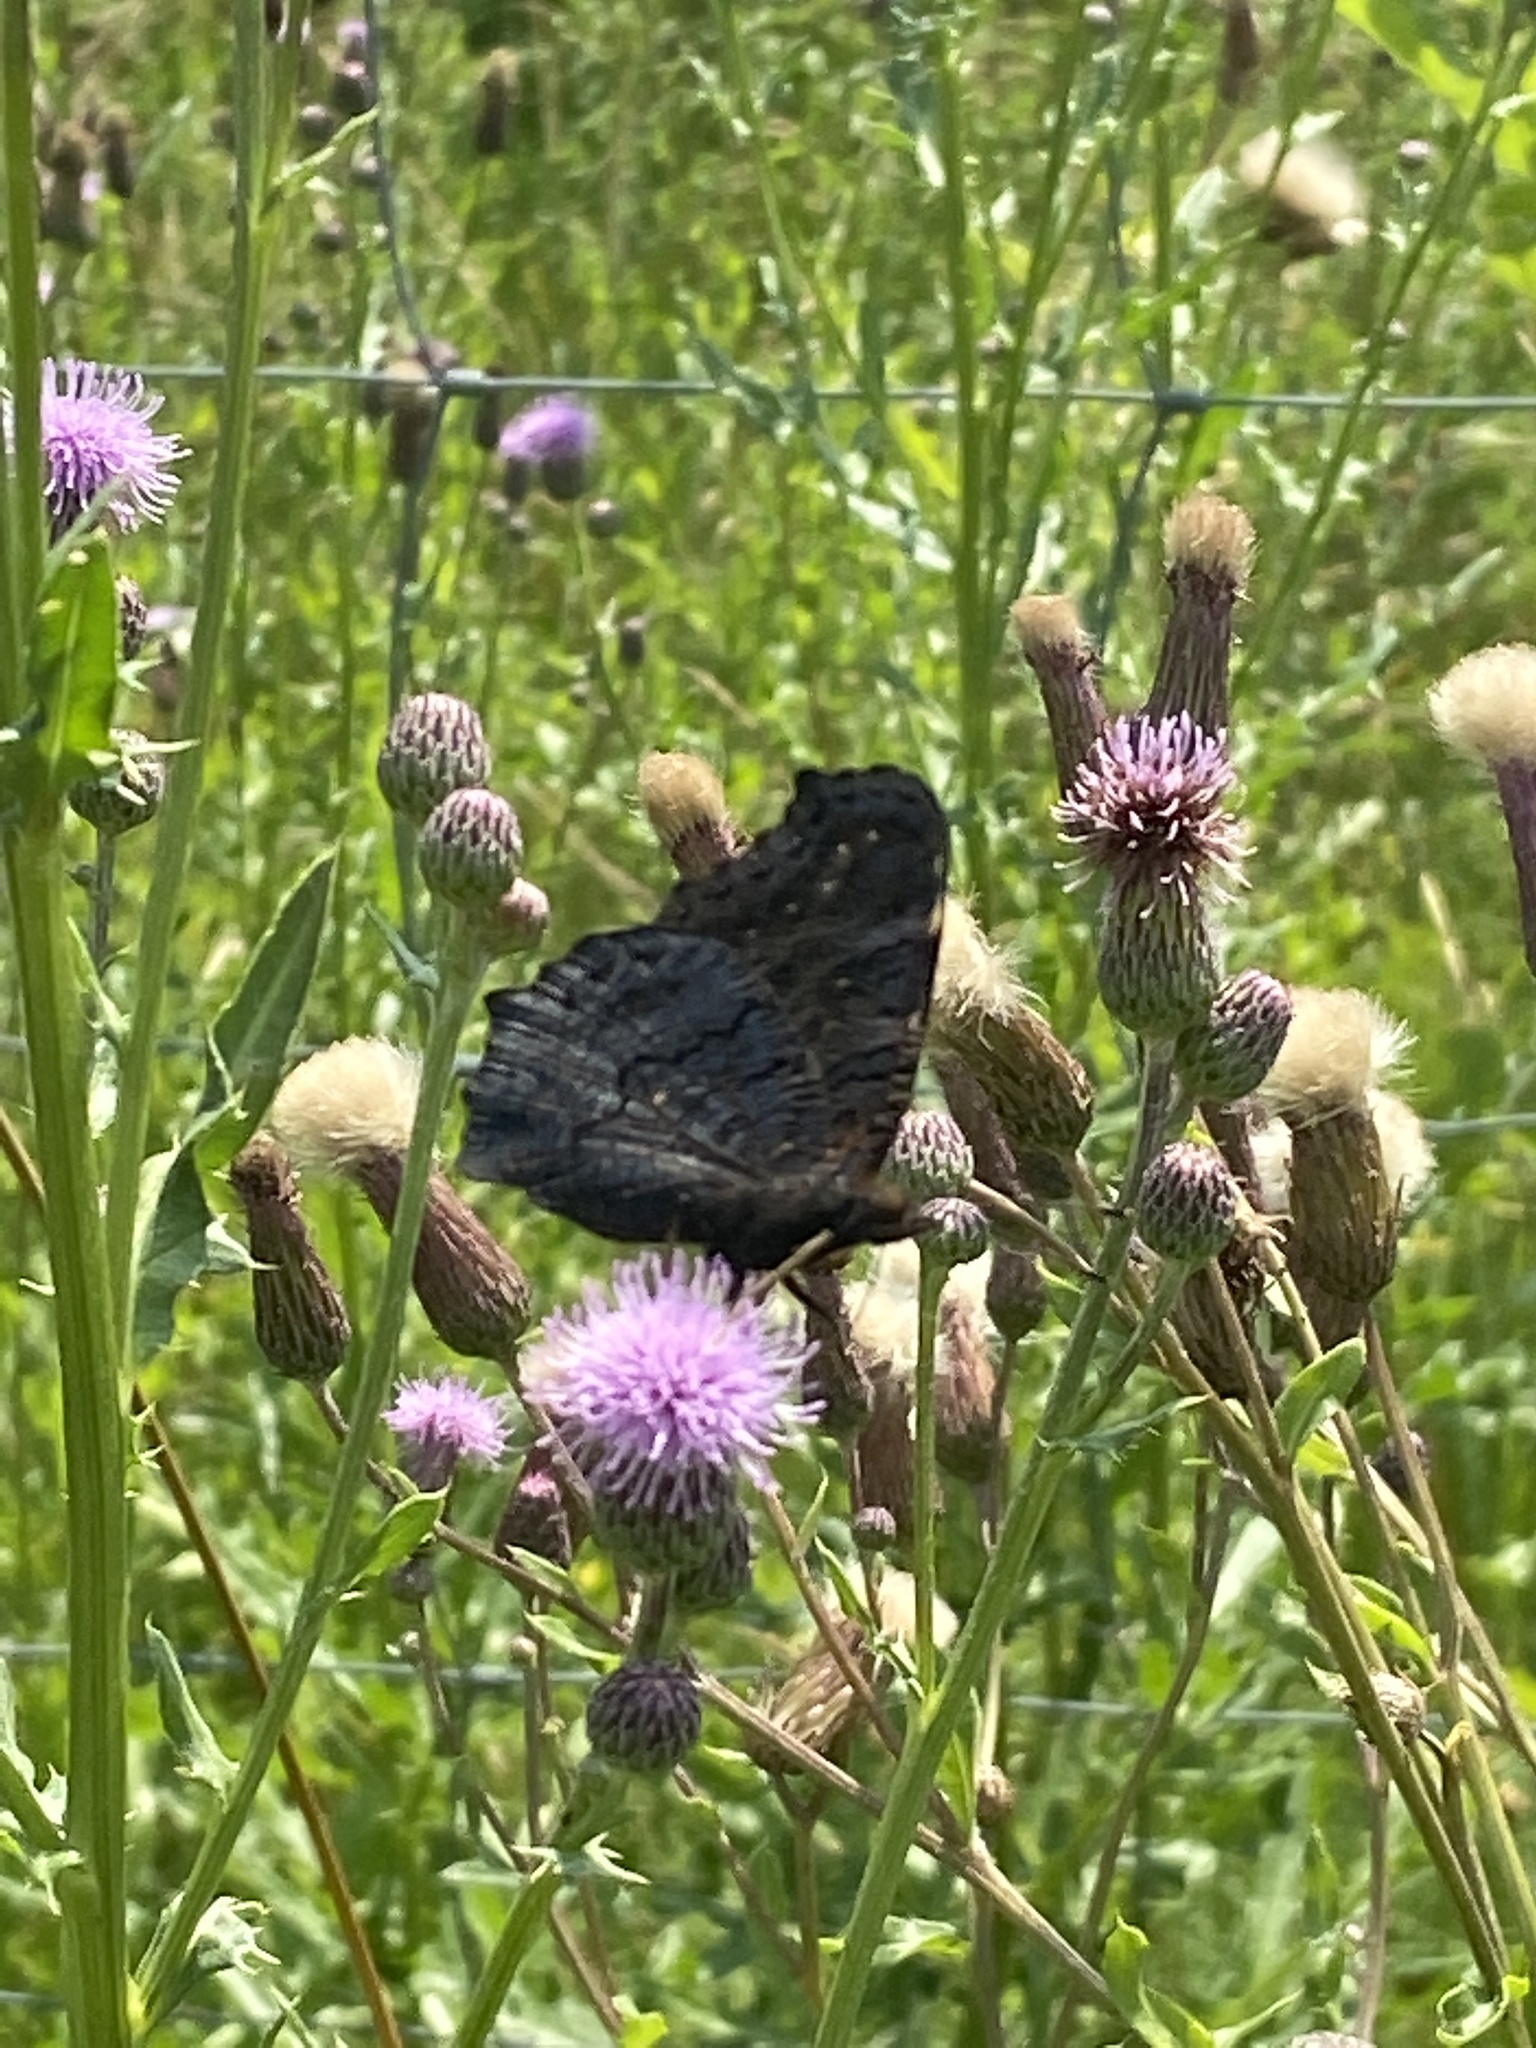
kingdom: Animalia
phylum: Arthropoda
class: Insecta
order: Lepidoptera
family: Nymphalidae
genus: Aglais
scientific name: Aglais io
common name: Peacock
